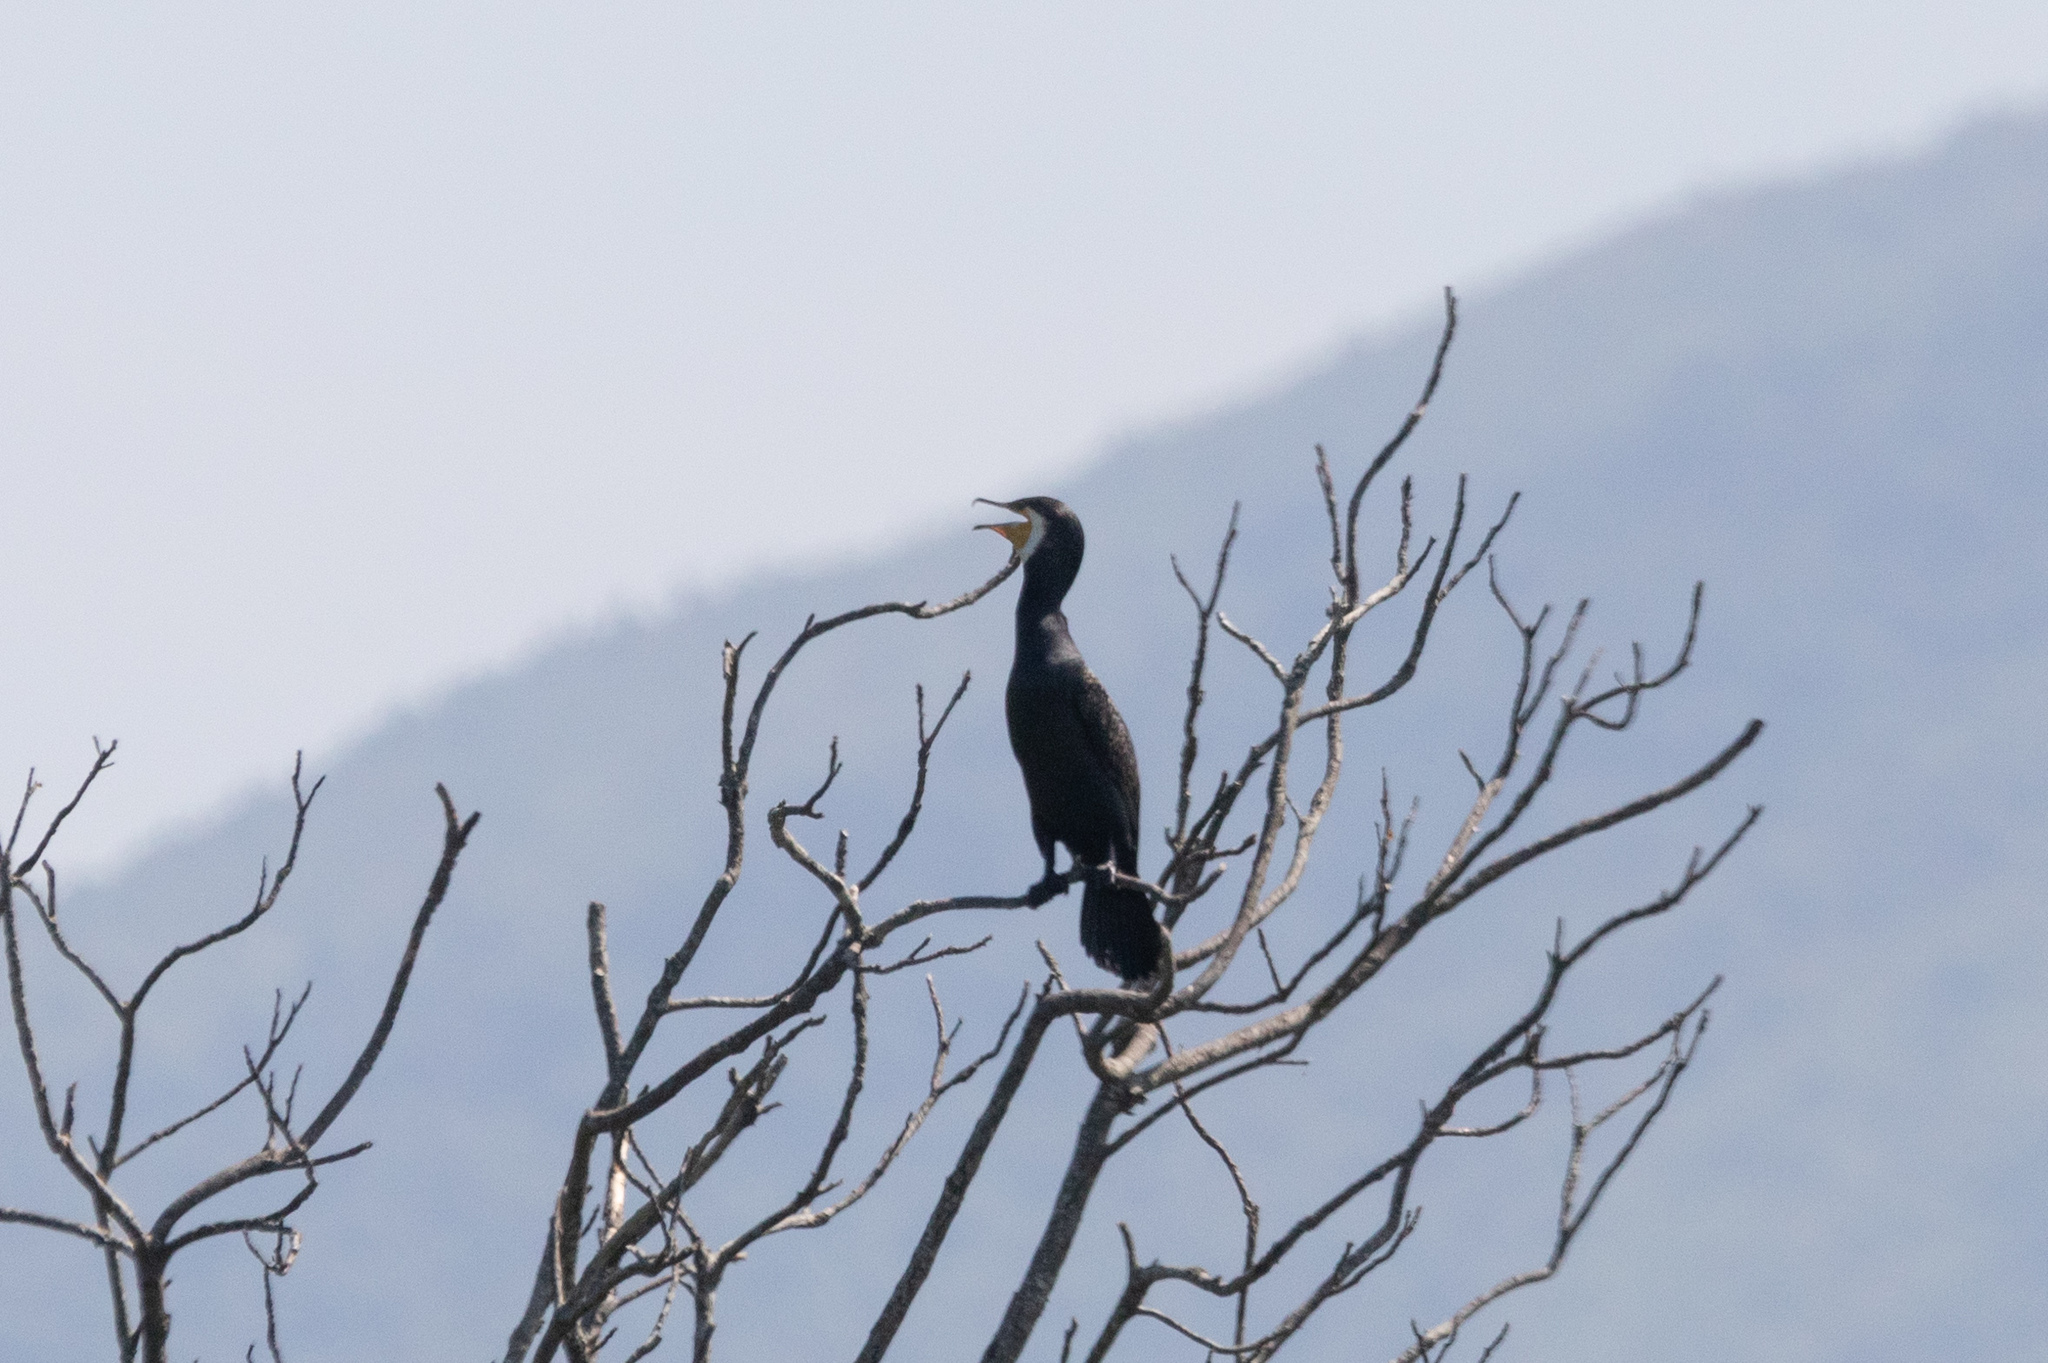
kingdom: Animalia
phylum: Chordata
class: Aves
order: Suliformes
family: Phalacrocoracidae
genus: Phalacrocorax
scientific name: Phalacrocorax carbo
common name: Great cormorant
